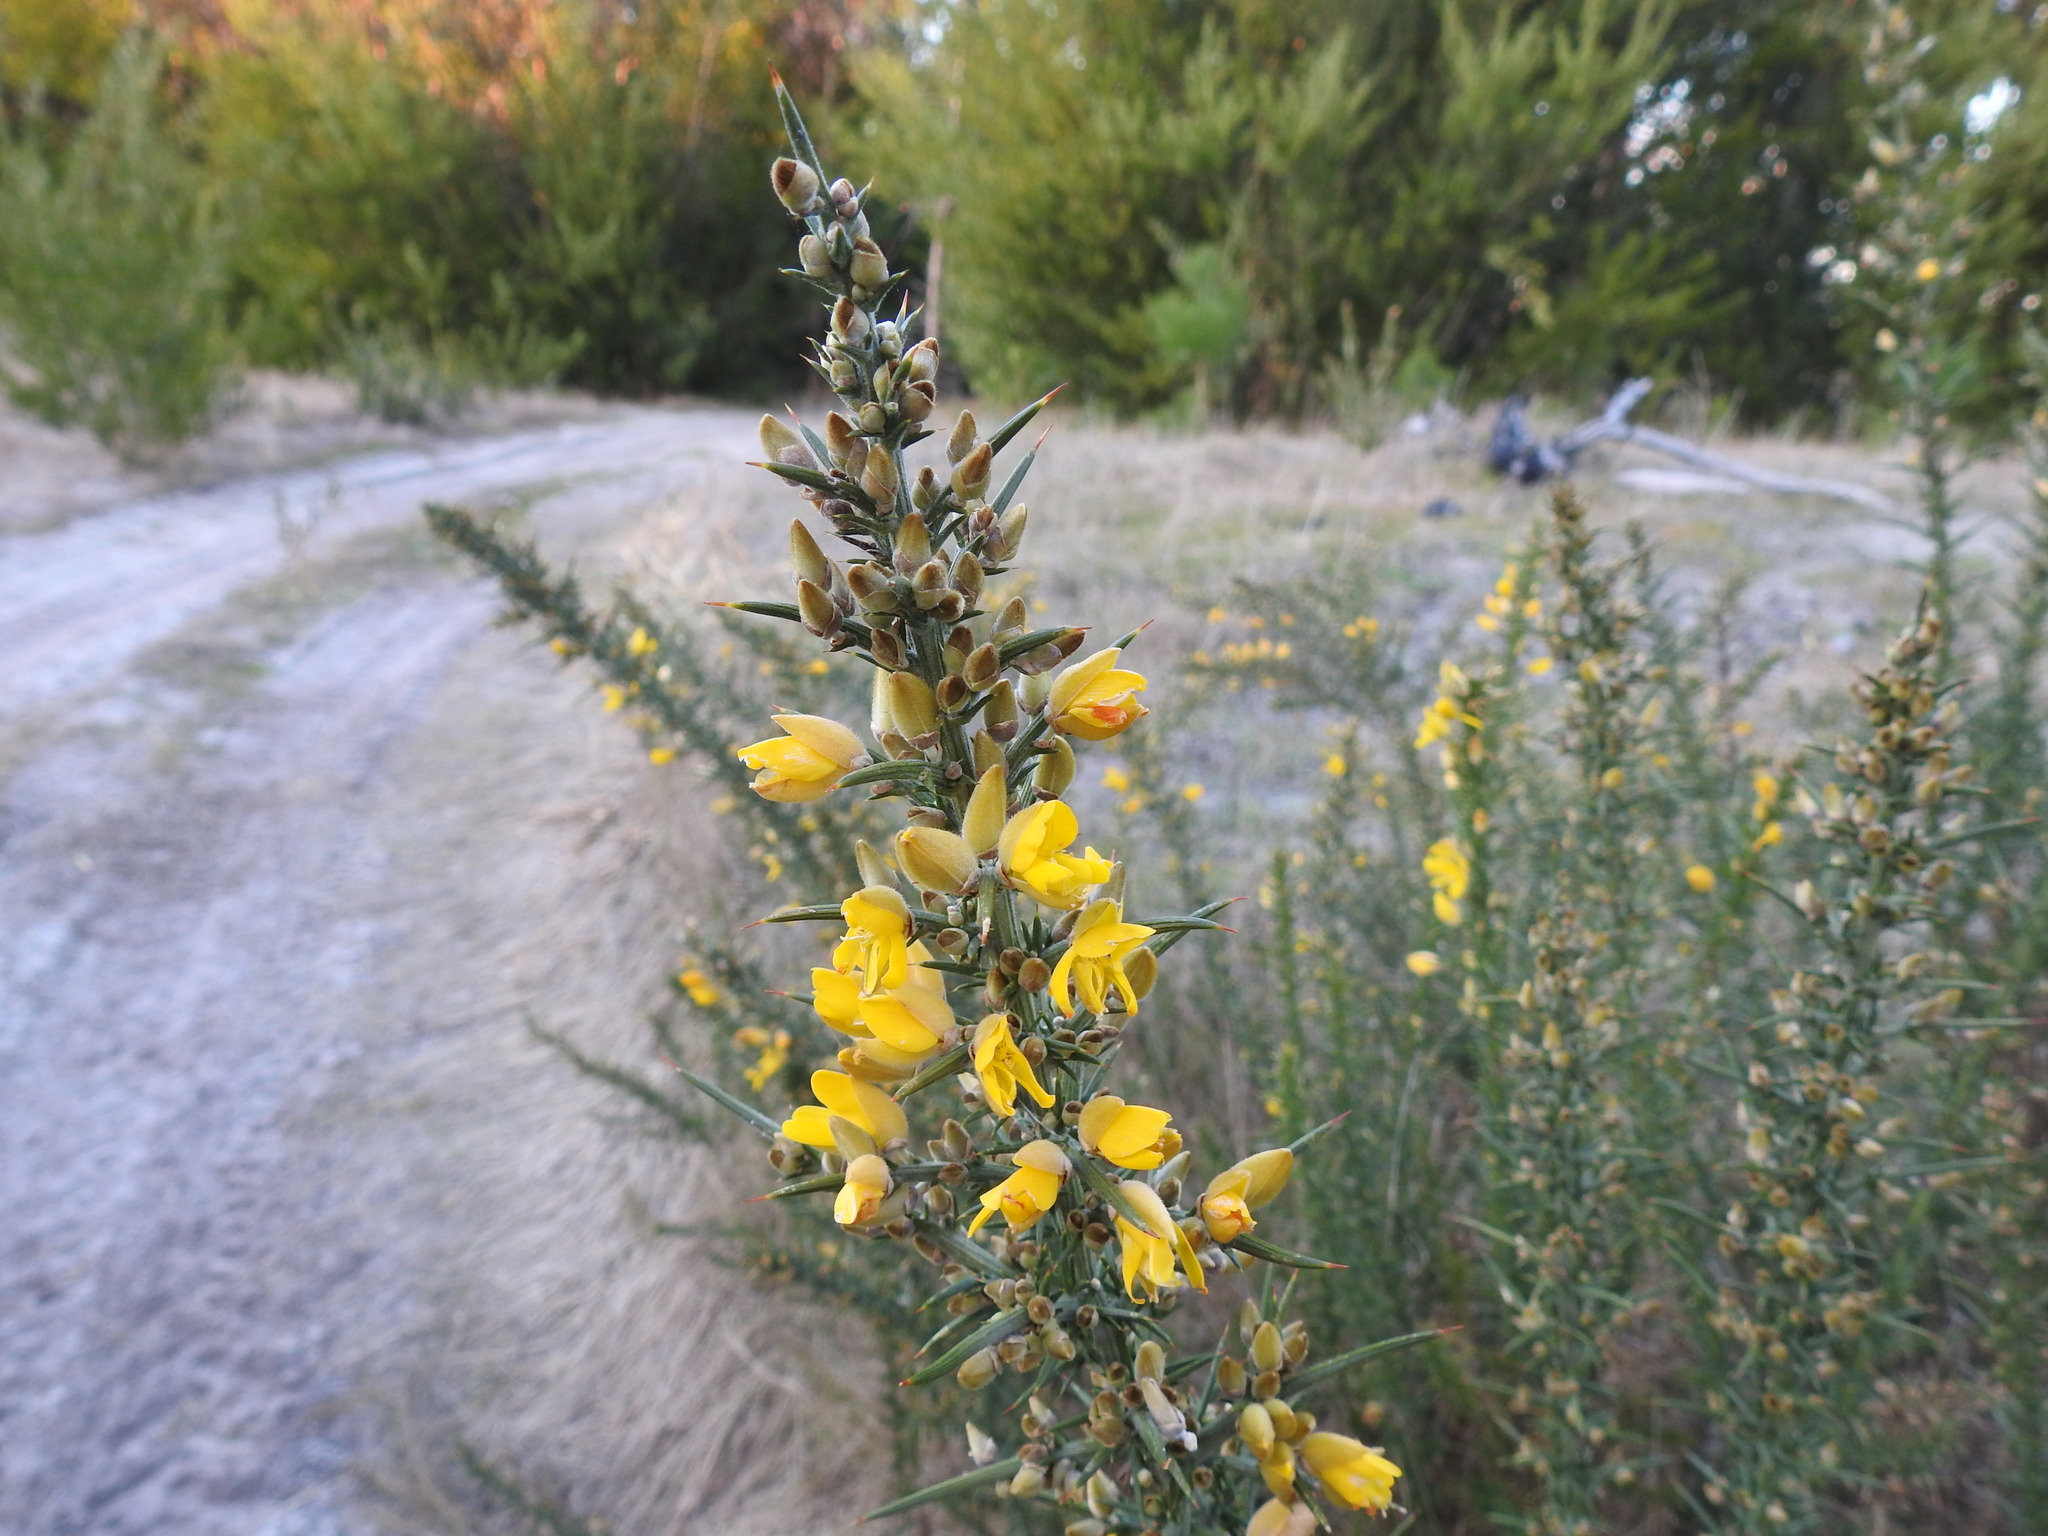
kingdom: Plantae
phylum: Tracheophyta
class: Magnoliopsida
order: Fabales
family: Fabaceae
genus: Ulex
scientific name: Ulex europaeus
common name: Common gorse
